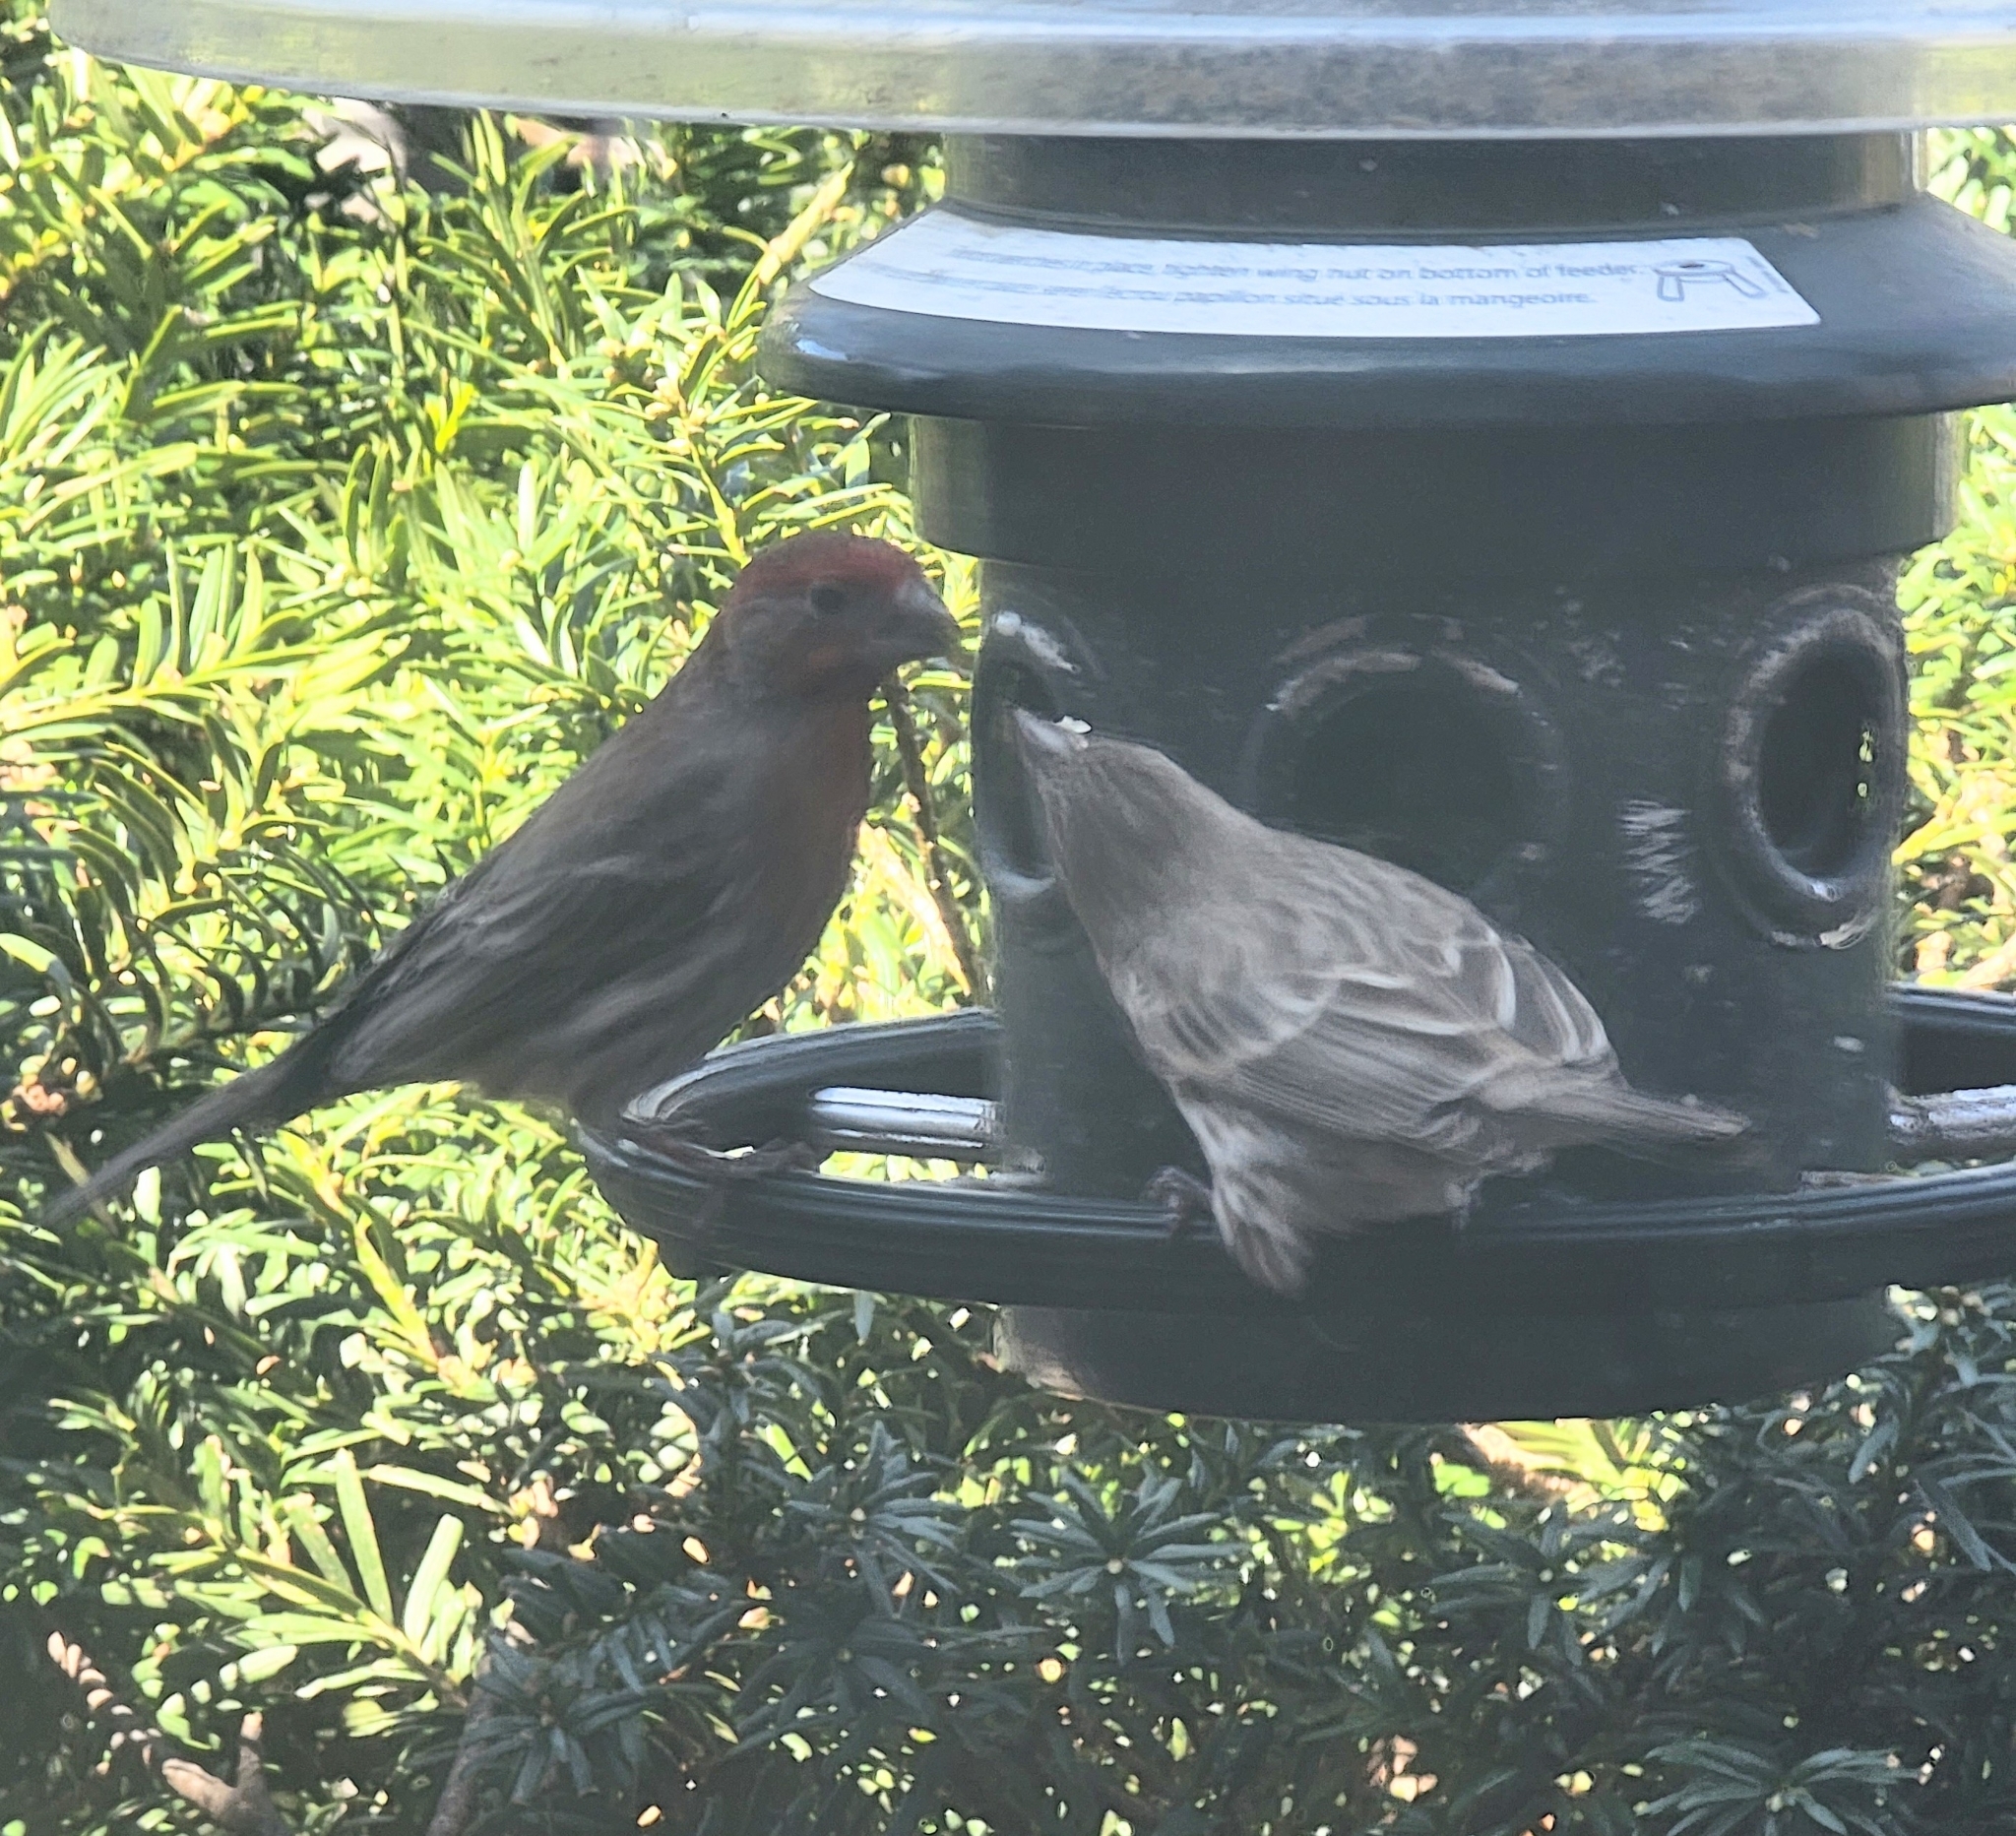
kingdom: Animalia
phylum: Chordata
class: Aves
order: Passeriformes
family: Fringillidae
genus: Haemorhous
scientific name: Haemorhous mexicanus
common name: House finch
